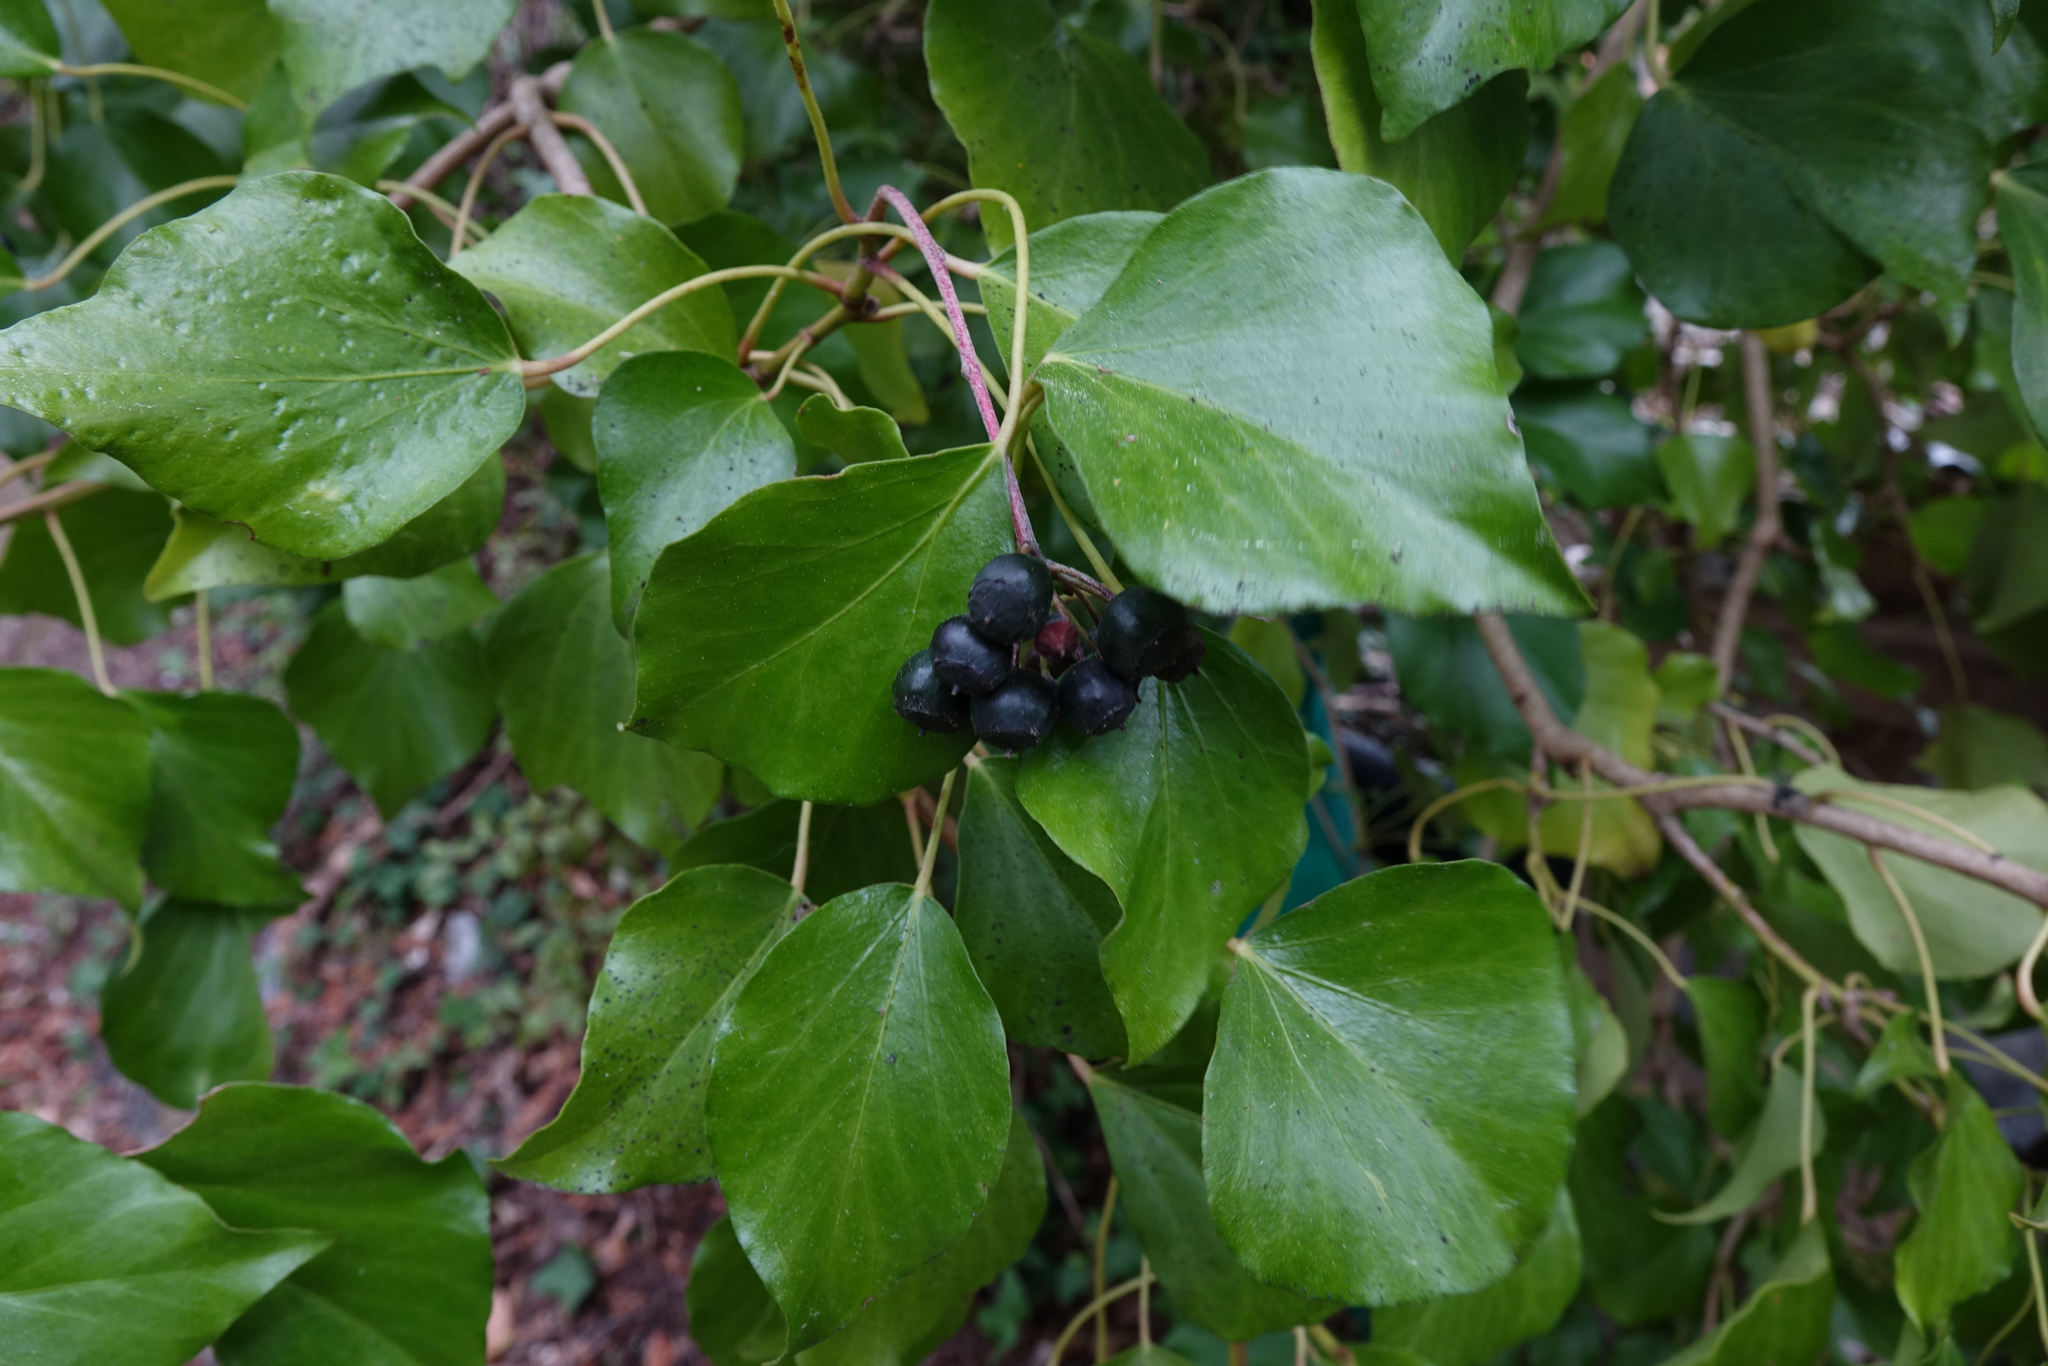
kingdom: Plantae
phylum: Tracheophyta
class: Magnoliopsida
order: Apiales
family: Araliaceae
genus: Hedera
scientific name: Hedera helix
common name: Ivy
